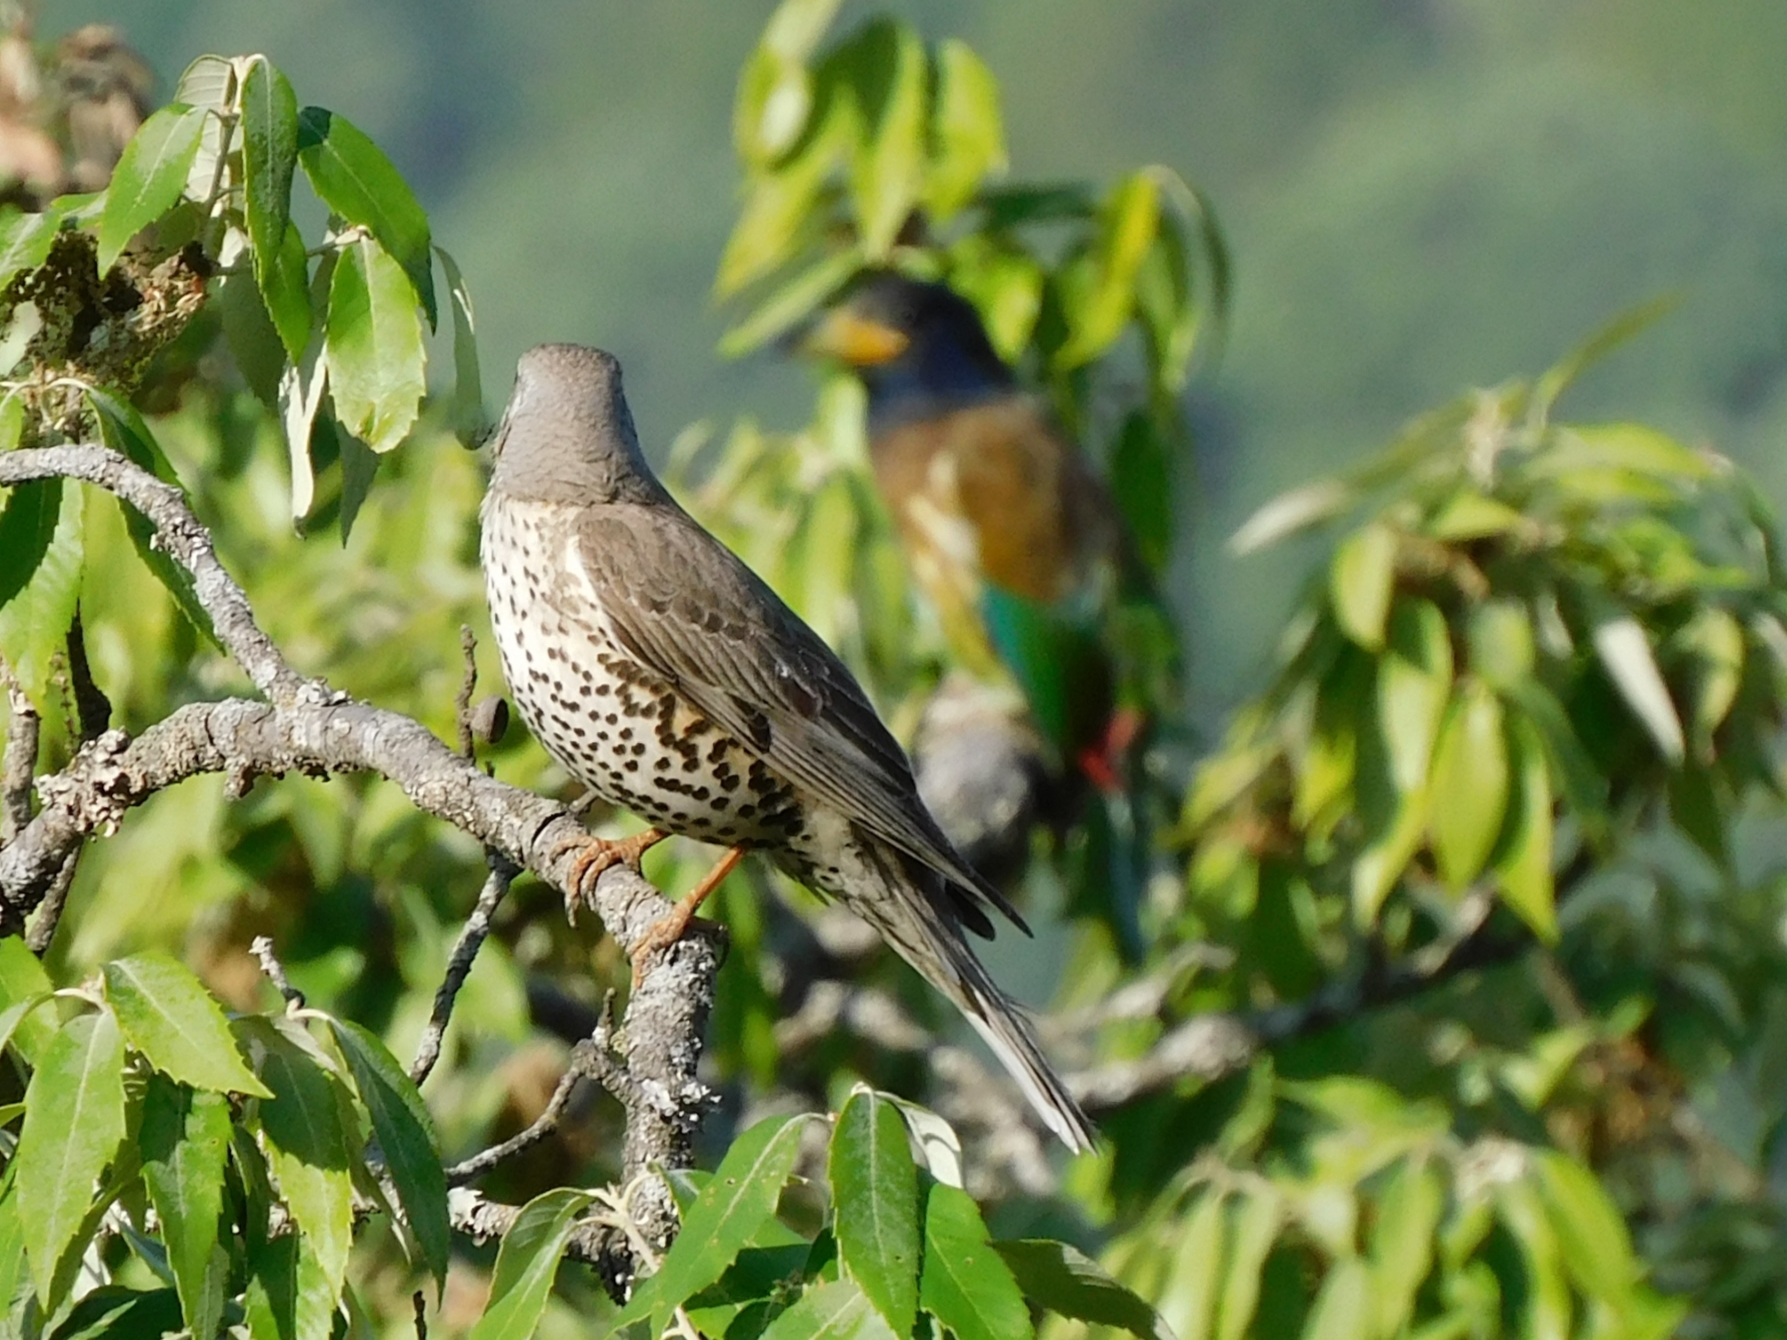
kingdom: Animalia
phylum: Chordata
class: Aves
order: Passeriformes
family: Turdidae
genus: Turdus
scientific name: Turdus viscivorus
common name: Mistle thrush
